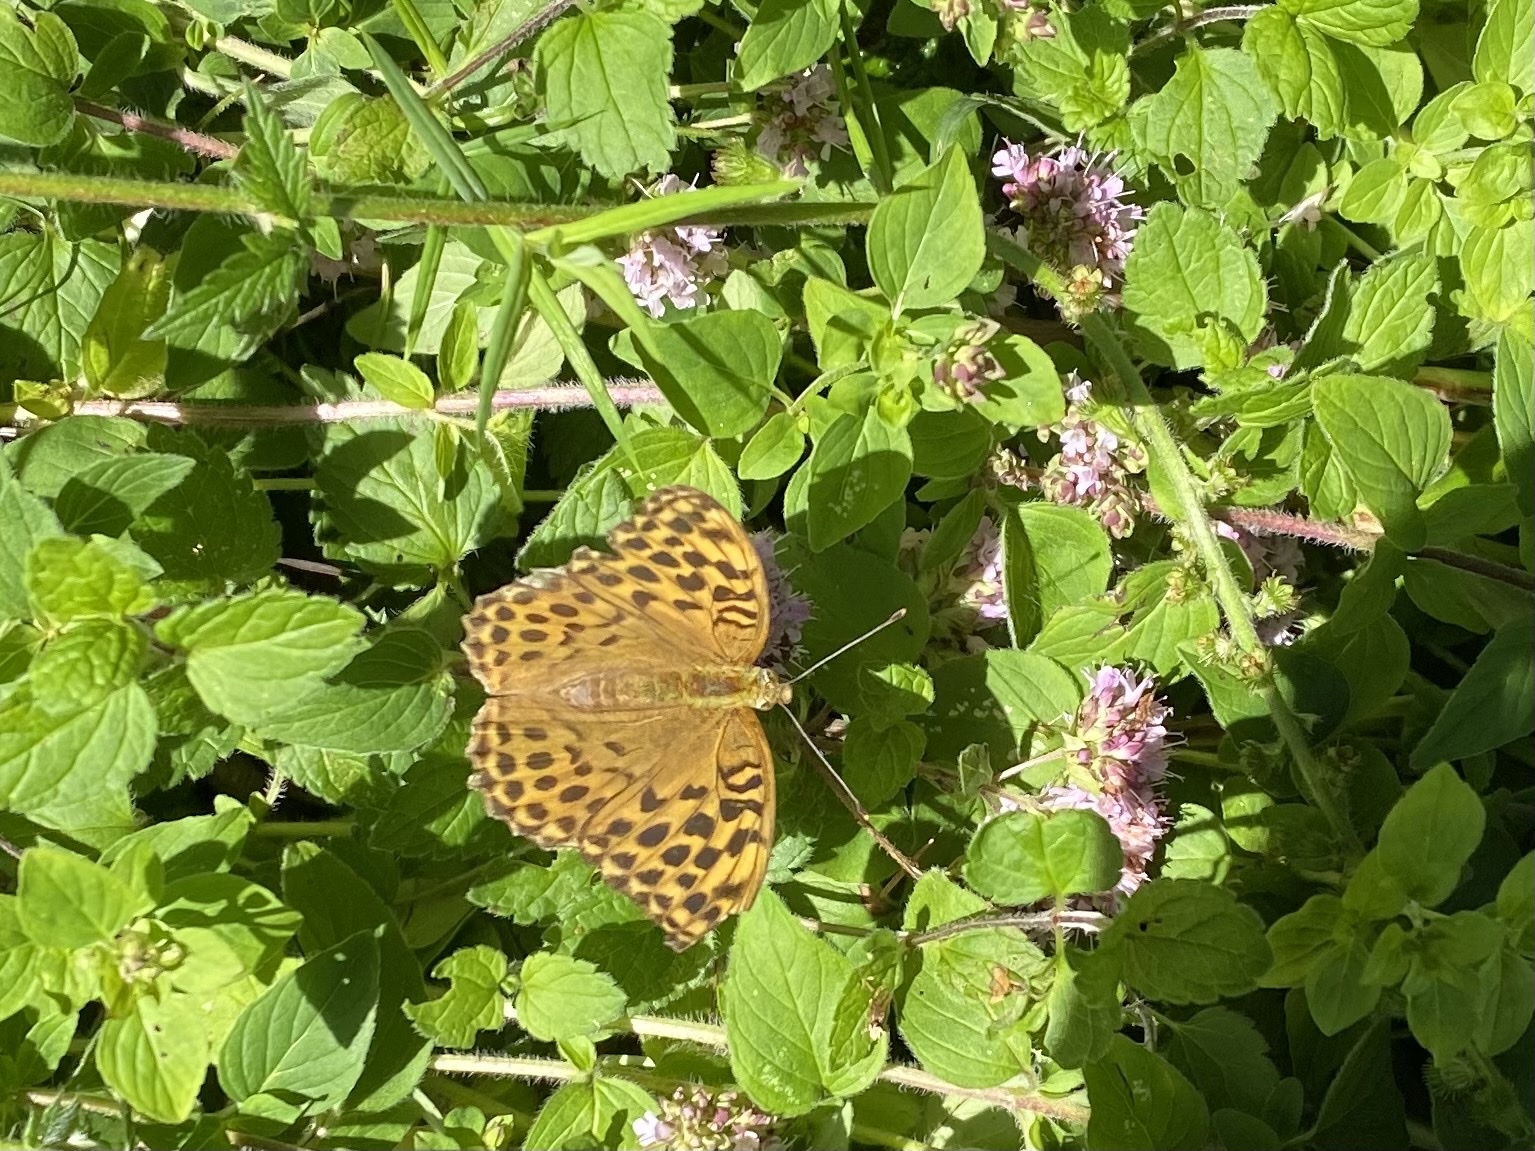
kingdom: Animalia
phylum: Arthropoda
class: Insecta
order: Lepidoptera
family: Nymphalidae
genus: Argynnis
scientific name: Argynnis paphia
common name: Silver-washed fritillary
